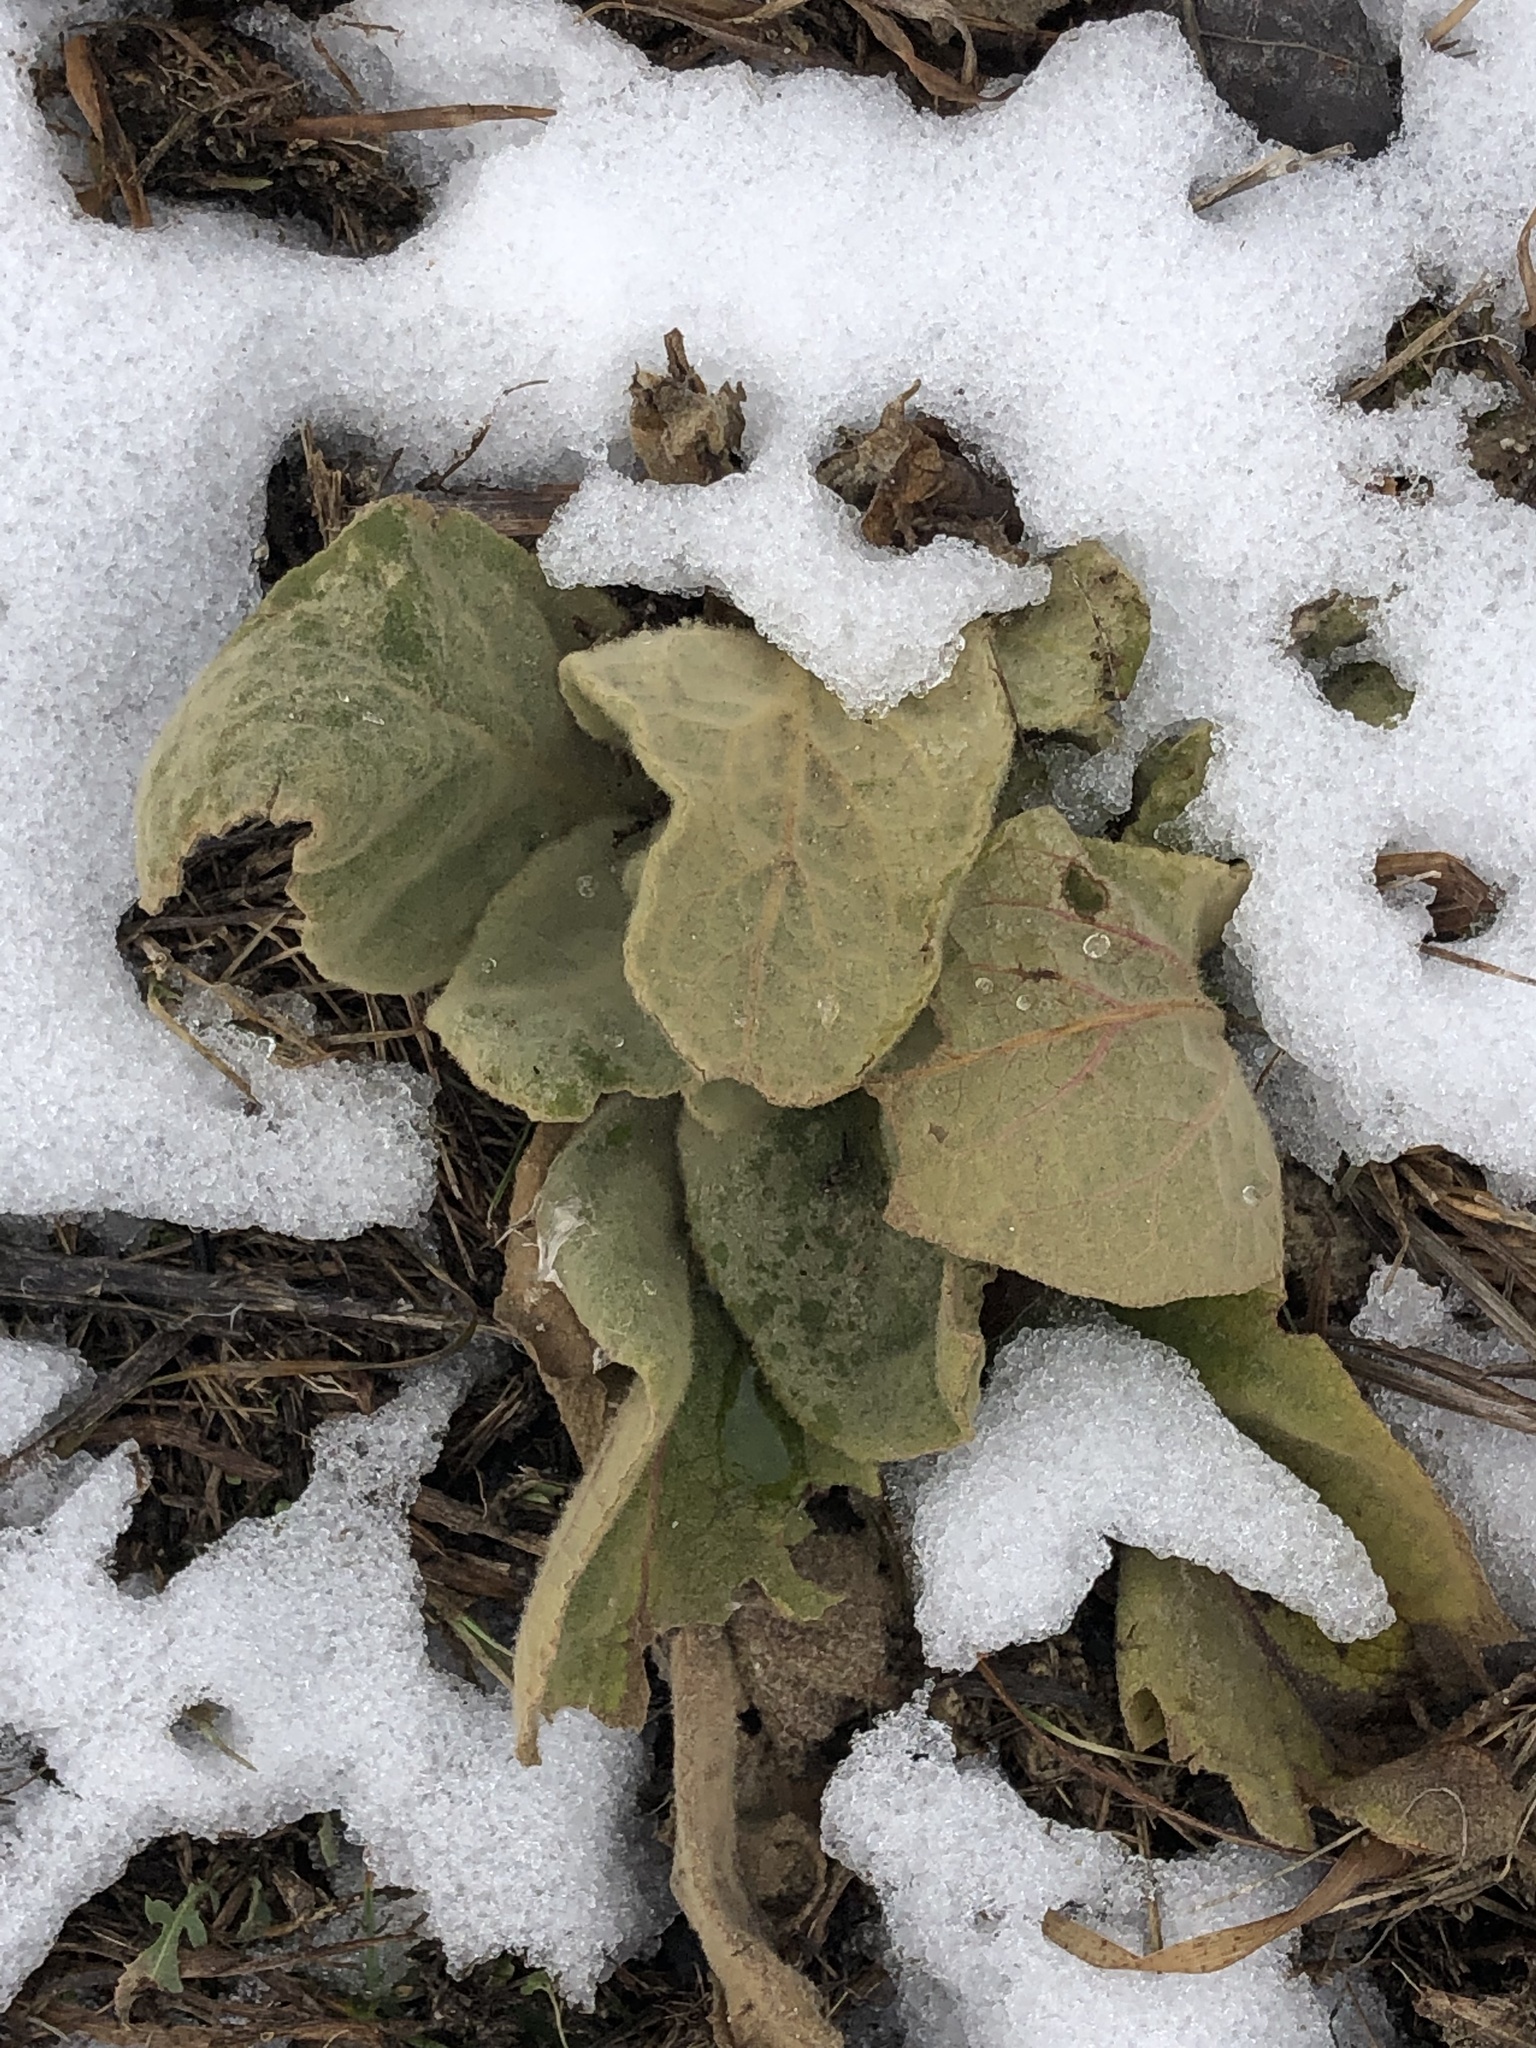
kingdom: Plantae
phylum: Tracheophyta
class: Magnoliopsida
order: Lamiales
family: Scrophulariaceae
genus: Verbascum
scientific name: Verbascum thapsus
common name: Common mullein
